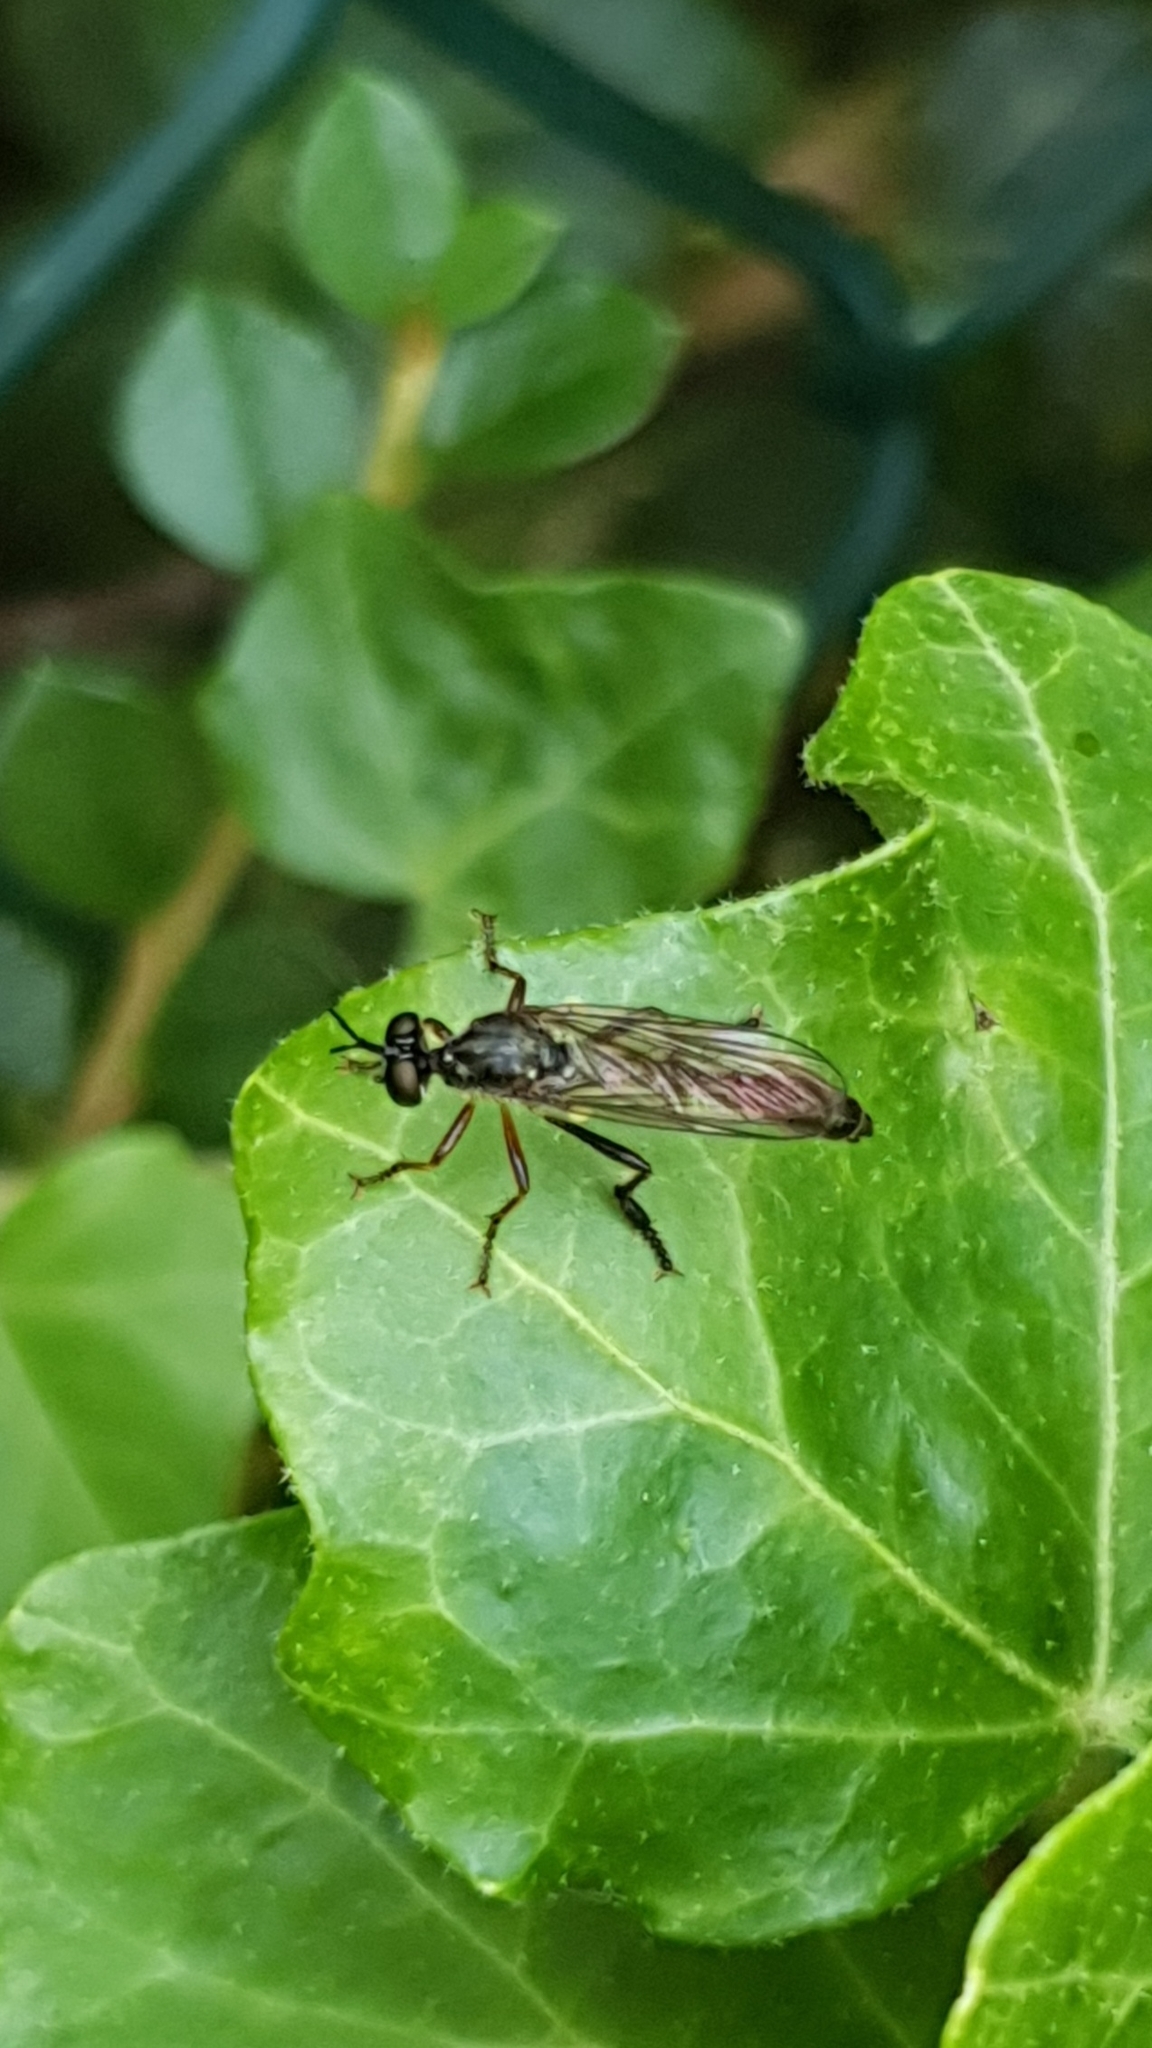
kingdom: Animalia
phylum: Arthropoda
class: Insecta
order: Diptera
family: Asilidae
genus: Dioctria
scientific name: Dioctria hyalipennis
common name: Stripe-legged robberfly
